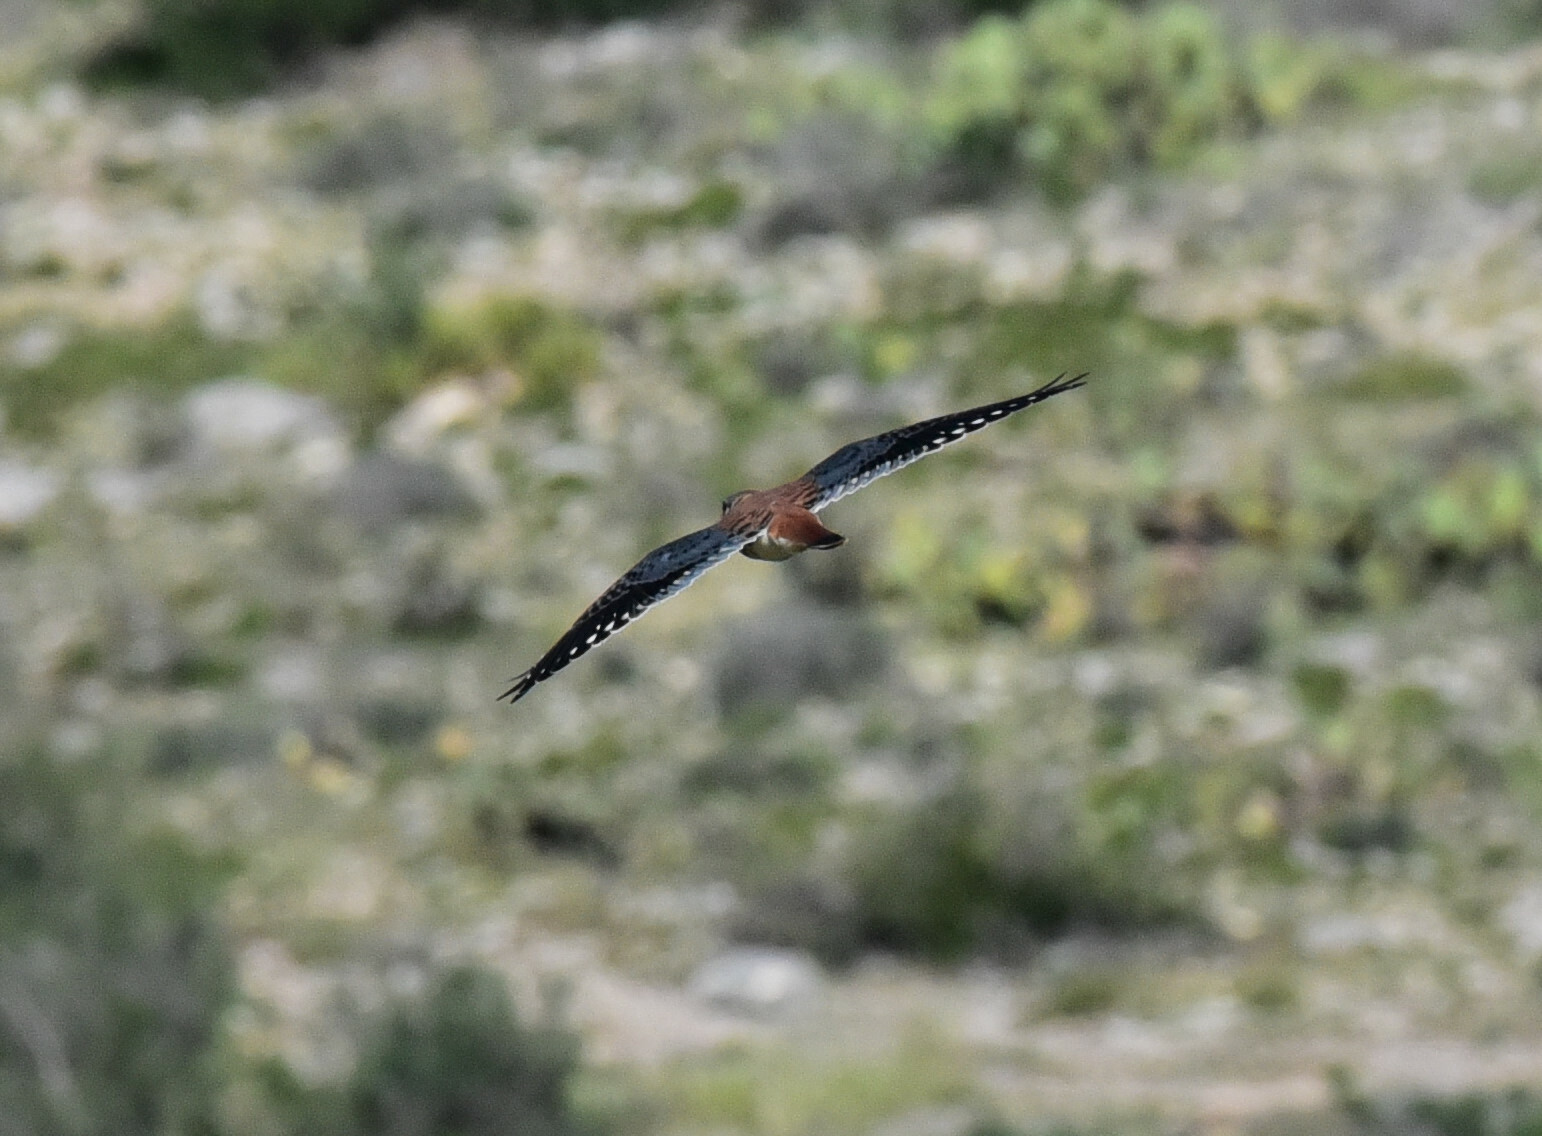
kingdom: Animalia
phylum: Chordata
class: Aves
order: Falconiformes
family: Falconidae
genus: Falco
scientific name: Falco sparverius
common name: American kestrel
